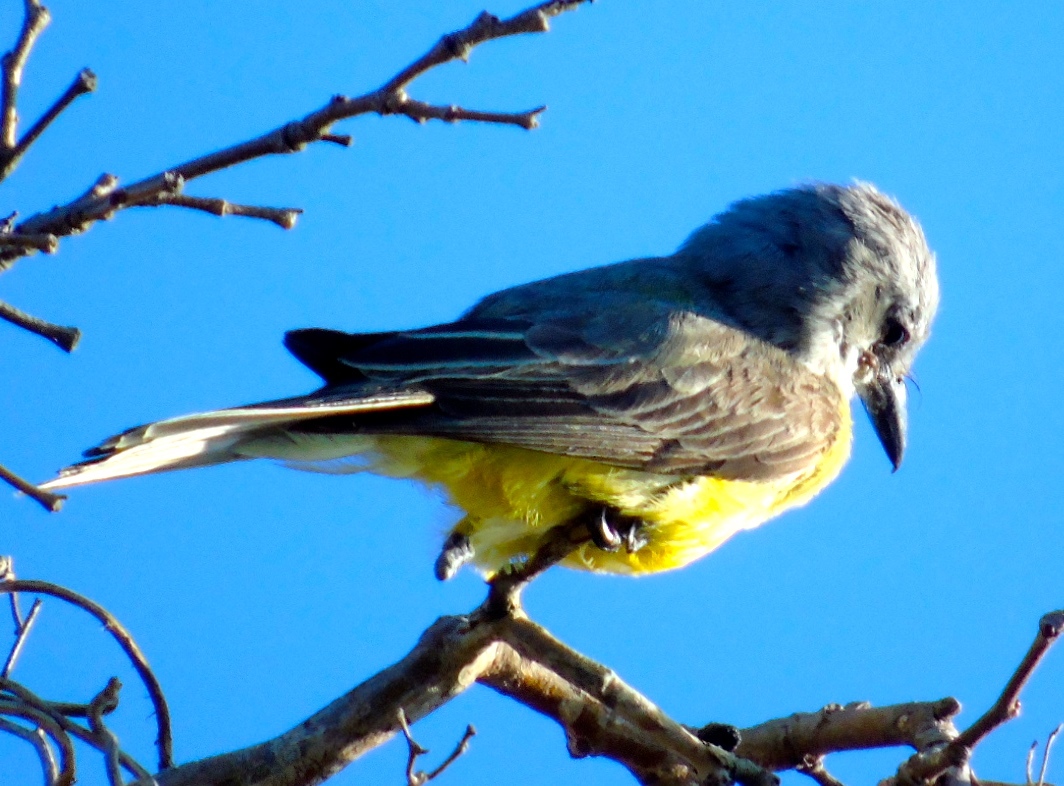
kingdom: Animalia
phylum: Chordata
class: Aves
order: Passeriformes
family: Tyrannidae
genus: Tyrannus
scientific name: Tyrannus melancholicus
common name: Tropical kingbird
